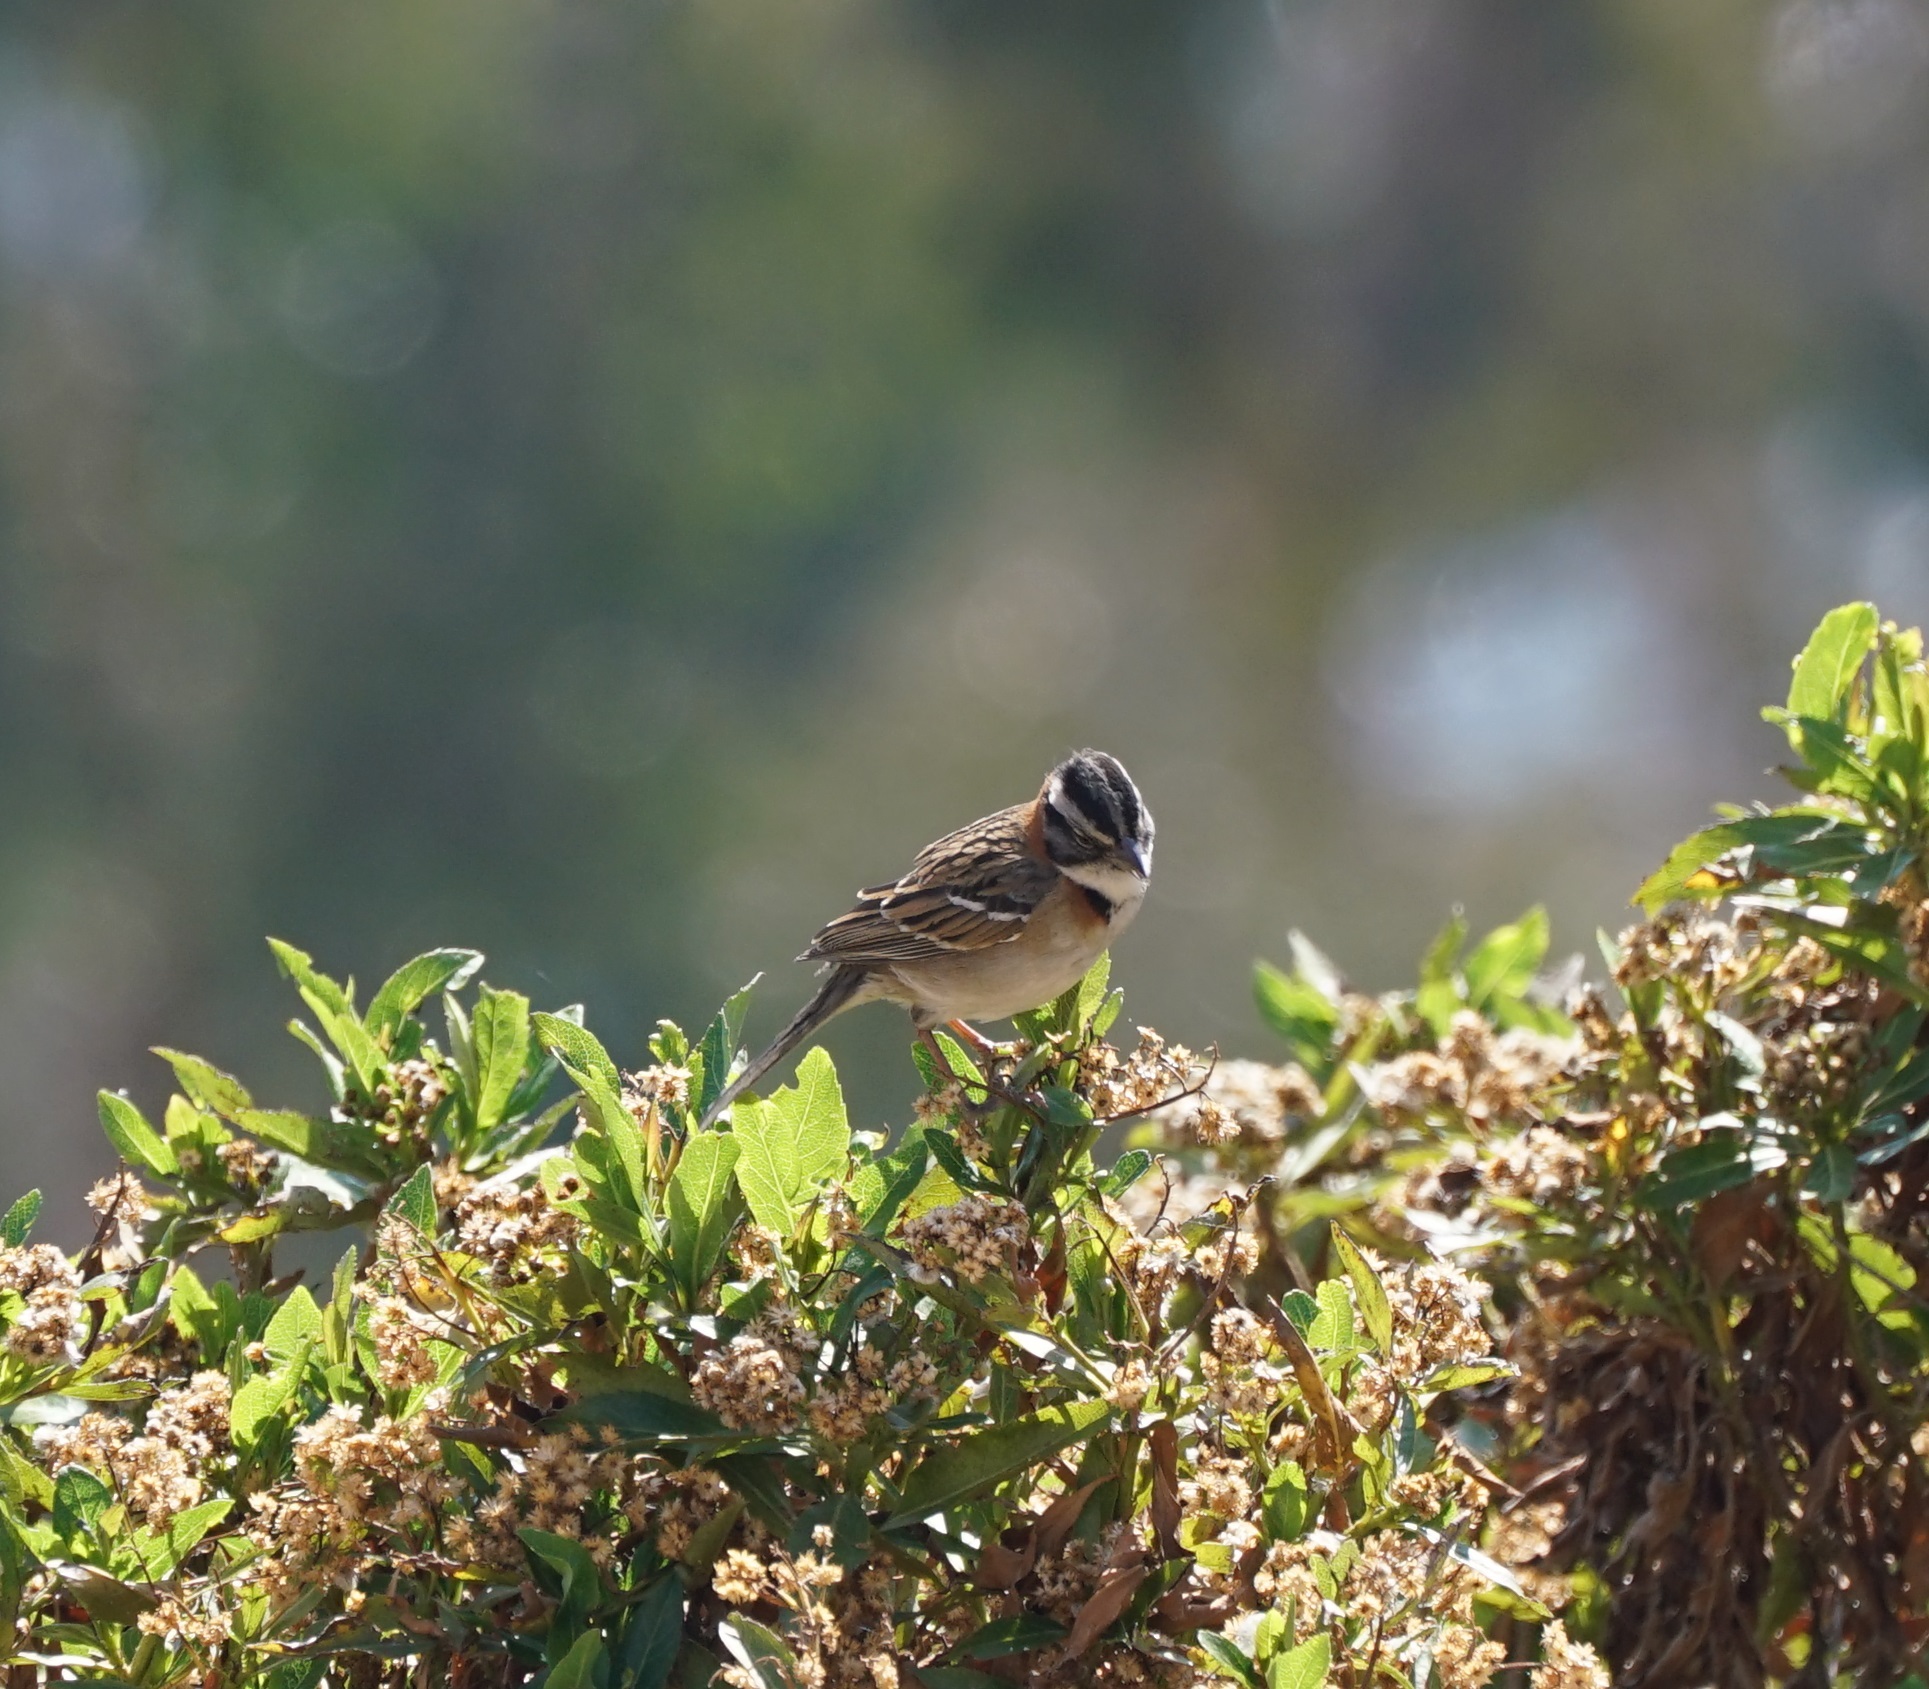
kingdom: Animalia
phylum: Chordata
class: Aves
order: Passeriformes
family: Passerellidae
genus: Zonotrichia
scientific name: Zonotrichia capensis
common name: Rufous-collared sparrow
